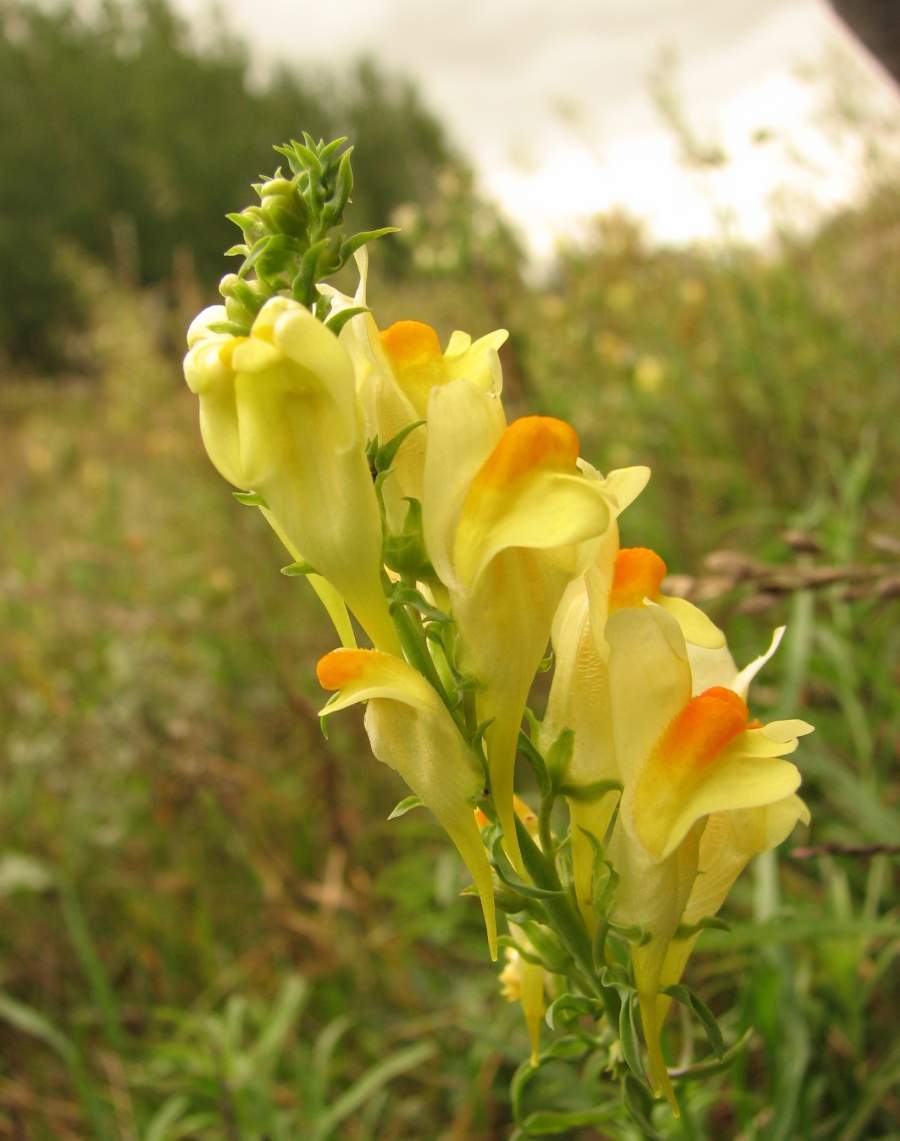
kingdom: Plantae
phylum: Tracheophyta
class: Magnoliopsida
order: Lamiales
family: Plantaginaceae
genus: Linaria
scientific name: Linaria vulgaris
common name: Butter and eggs
